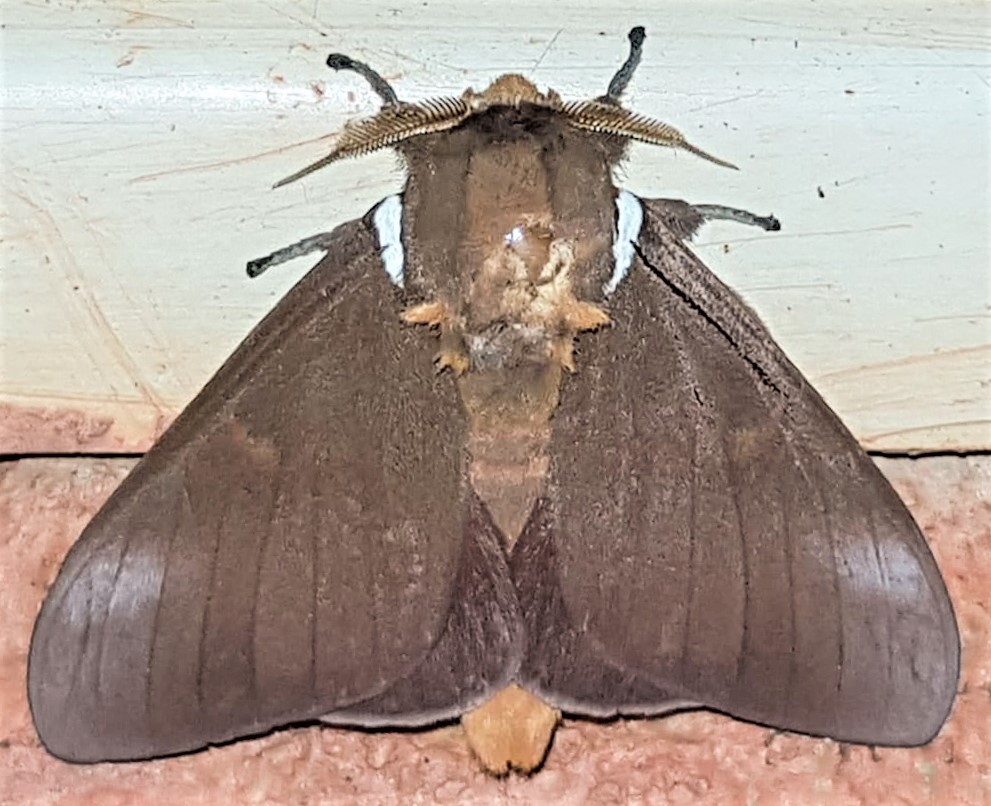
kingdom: Animalia
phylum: Arthropoda
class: Insecta
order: Lepidoptera
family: Saturniidae
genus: Schausiella
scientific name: Schausiella subochreata
